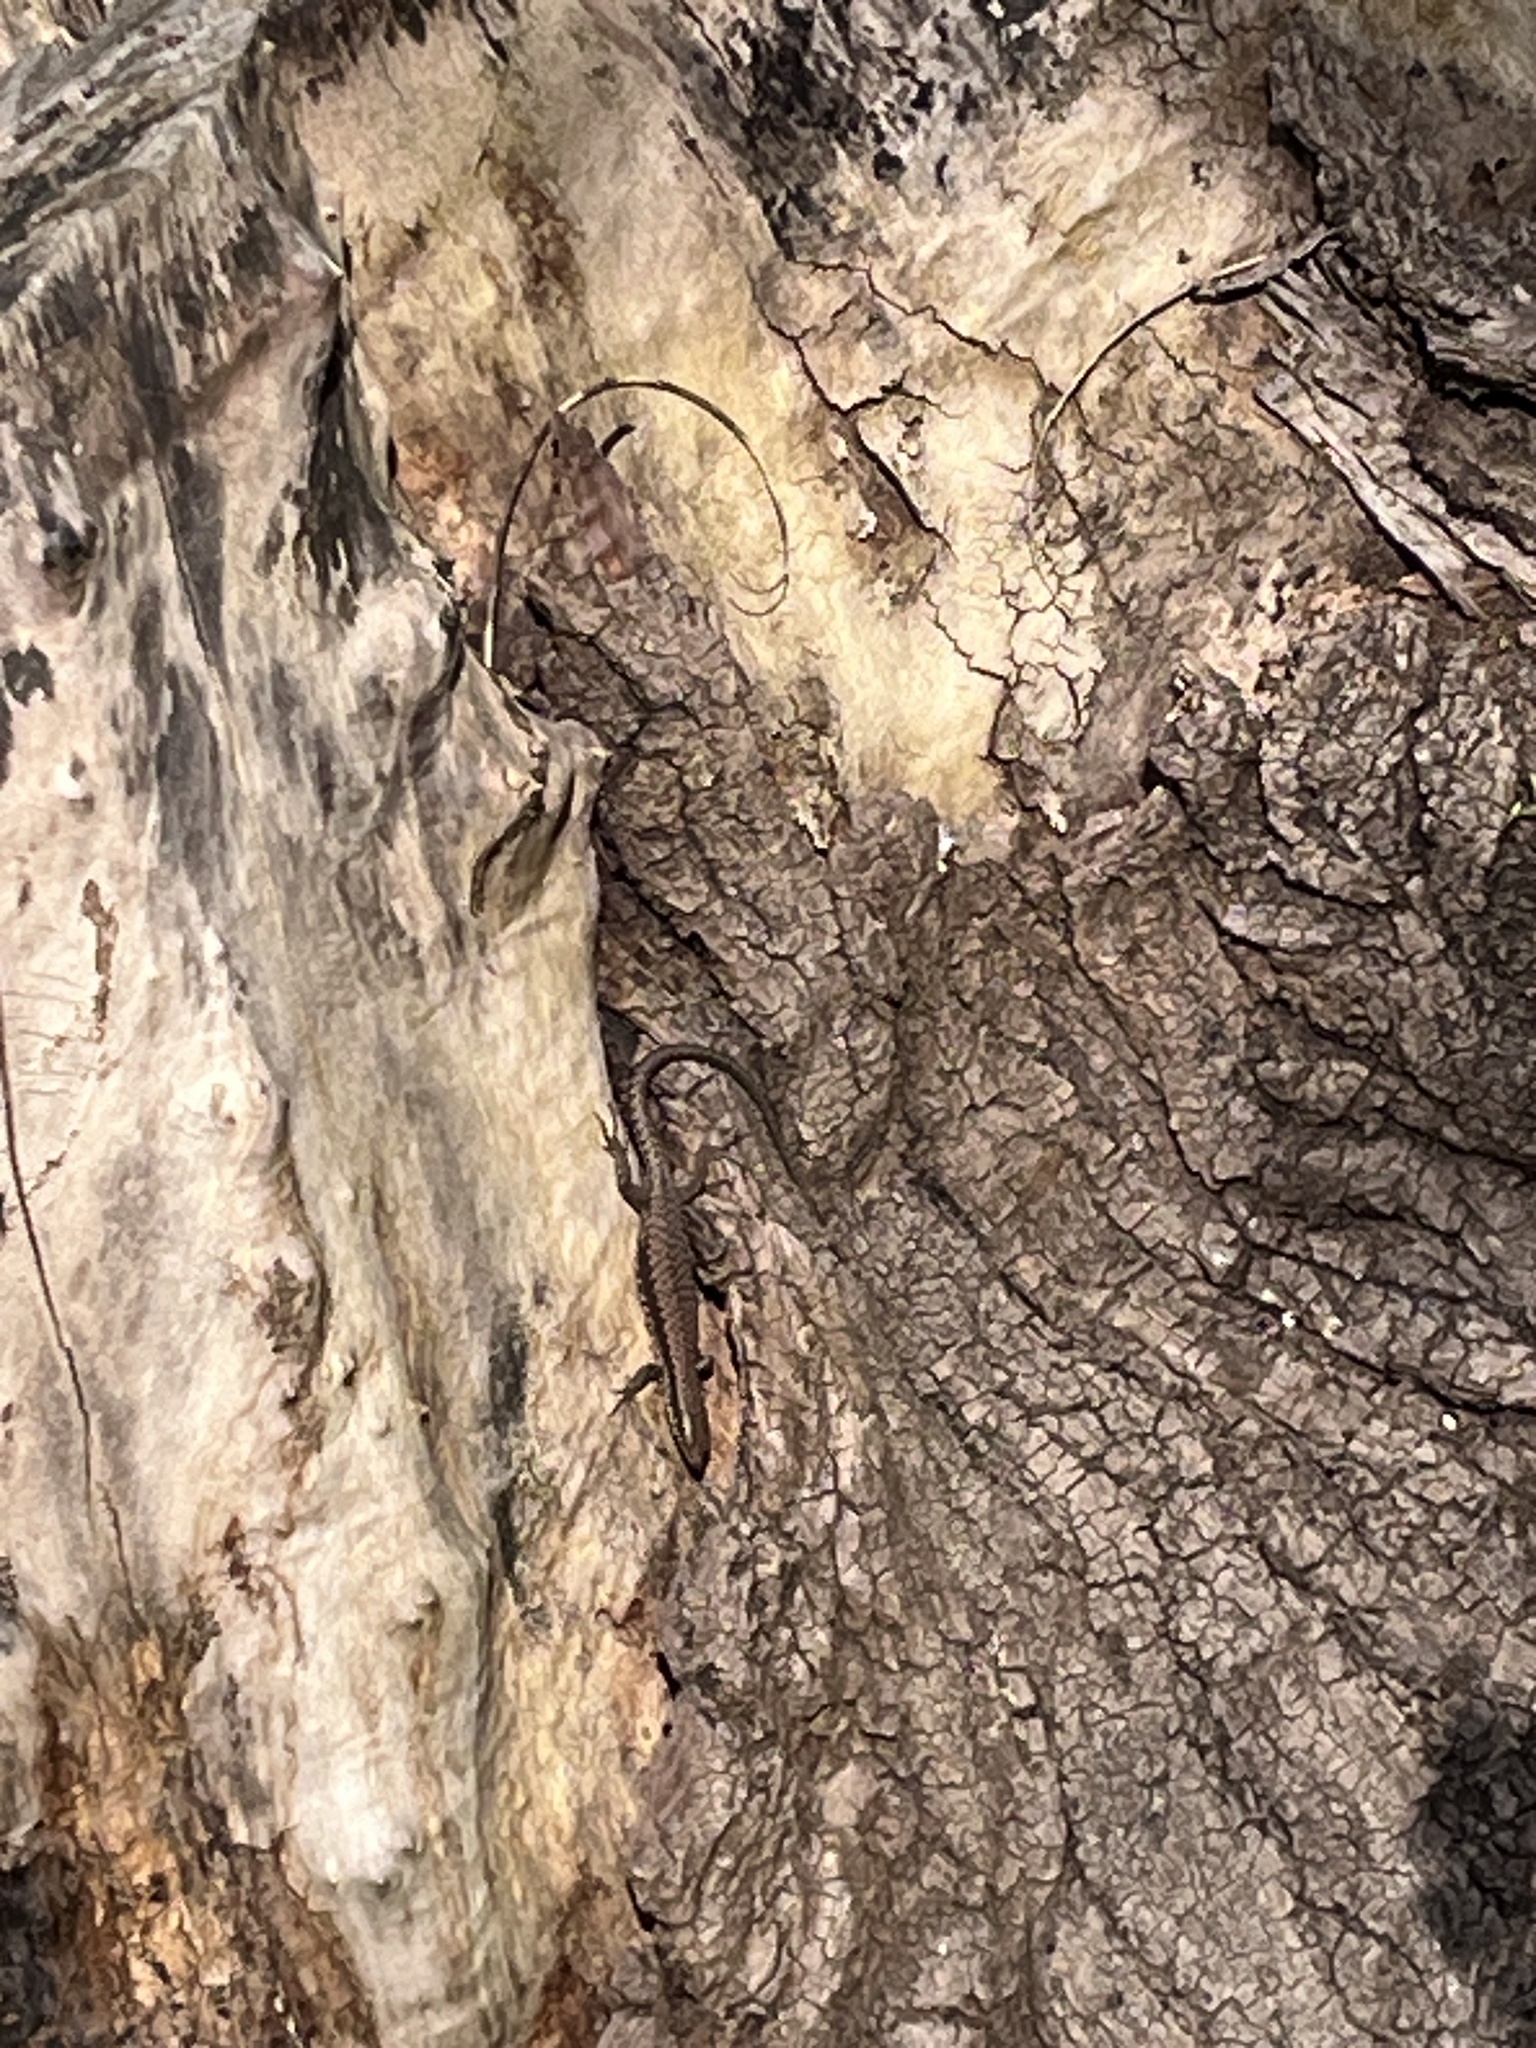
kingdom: Animalia
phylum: Chordata
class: Squamata
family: Lacertidae
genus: Podarcis
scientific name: Podarcis muralis
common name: Common wall lizard
